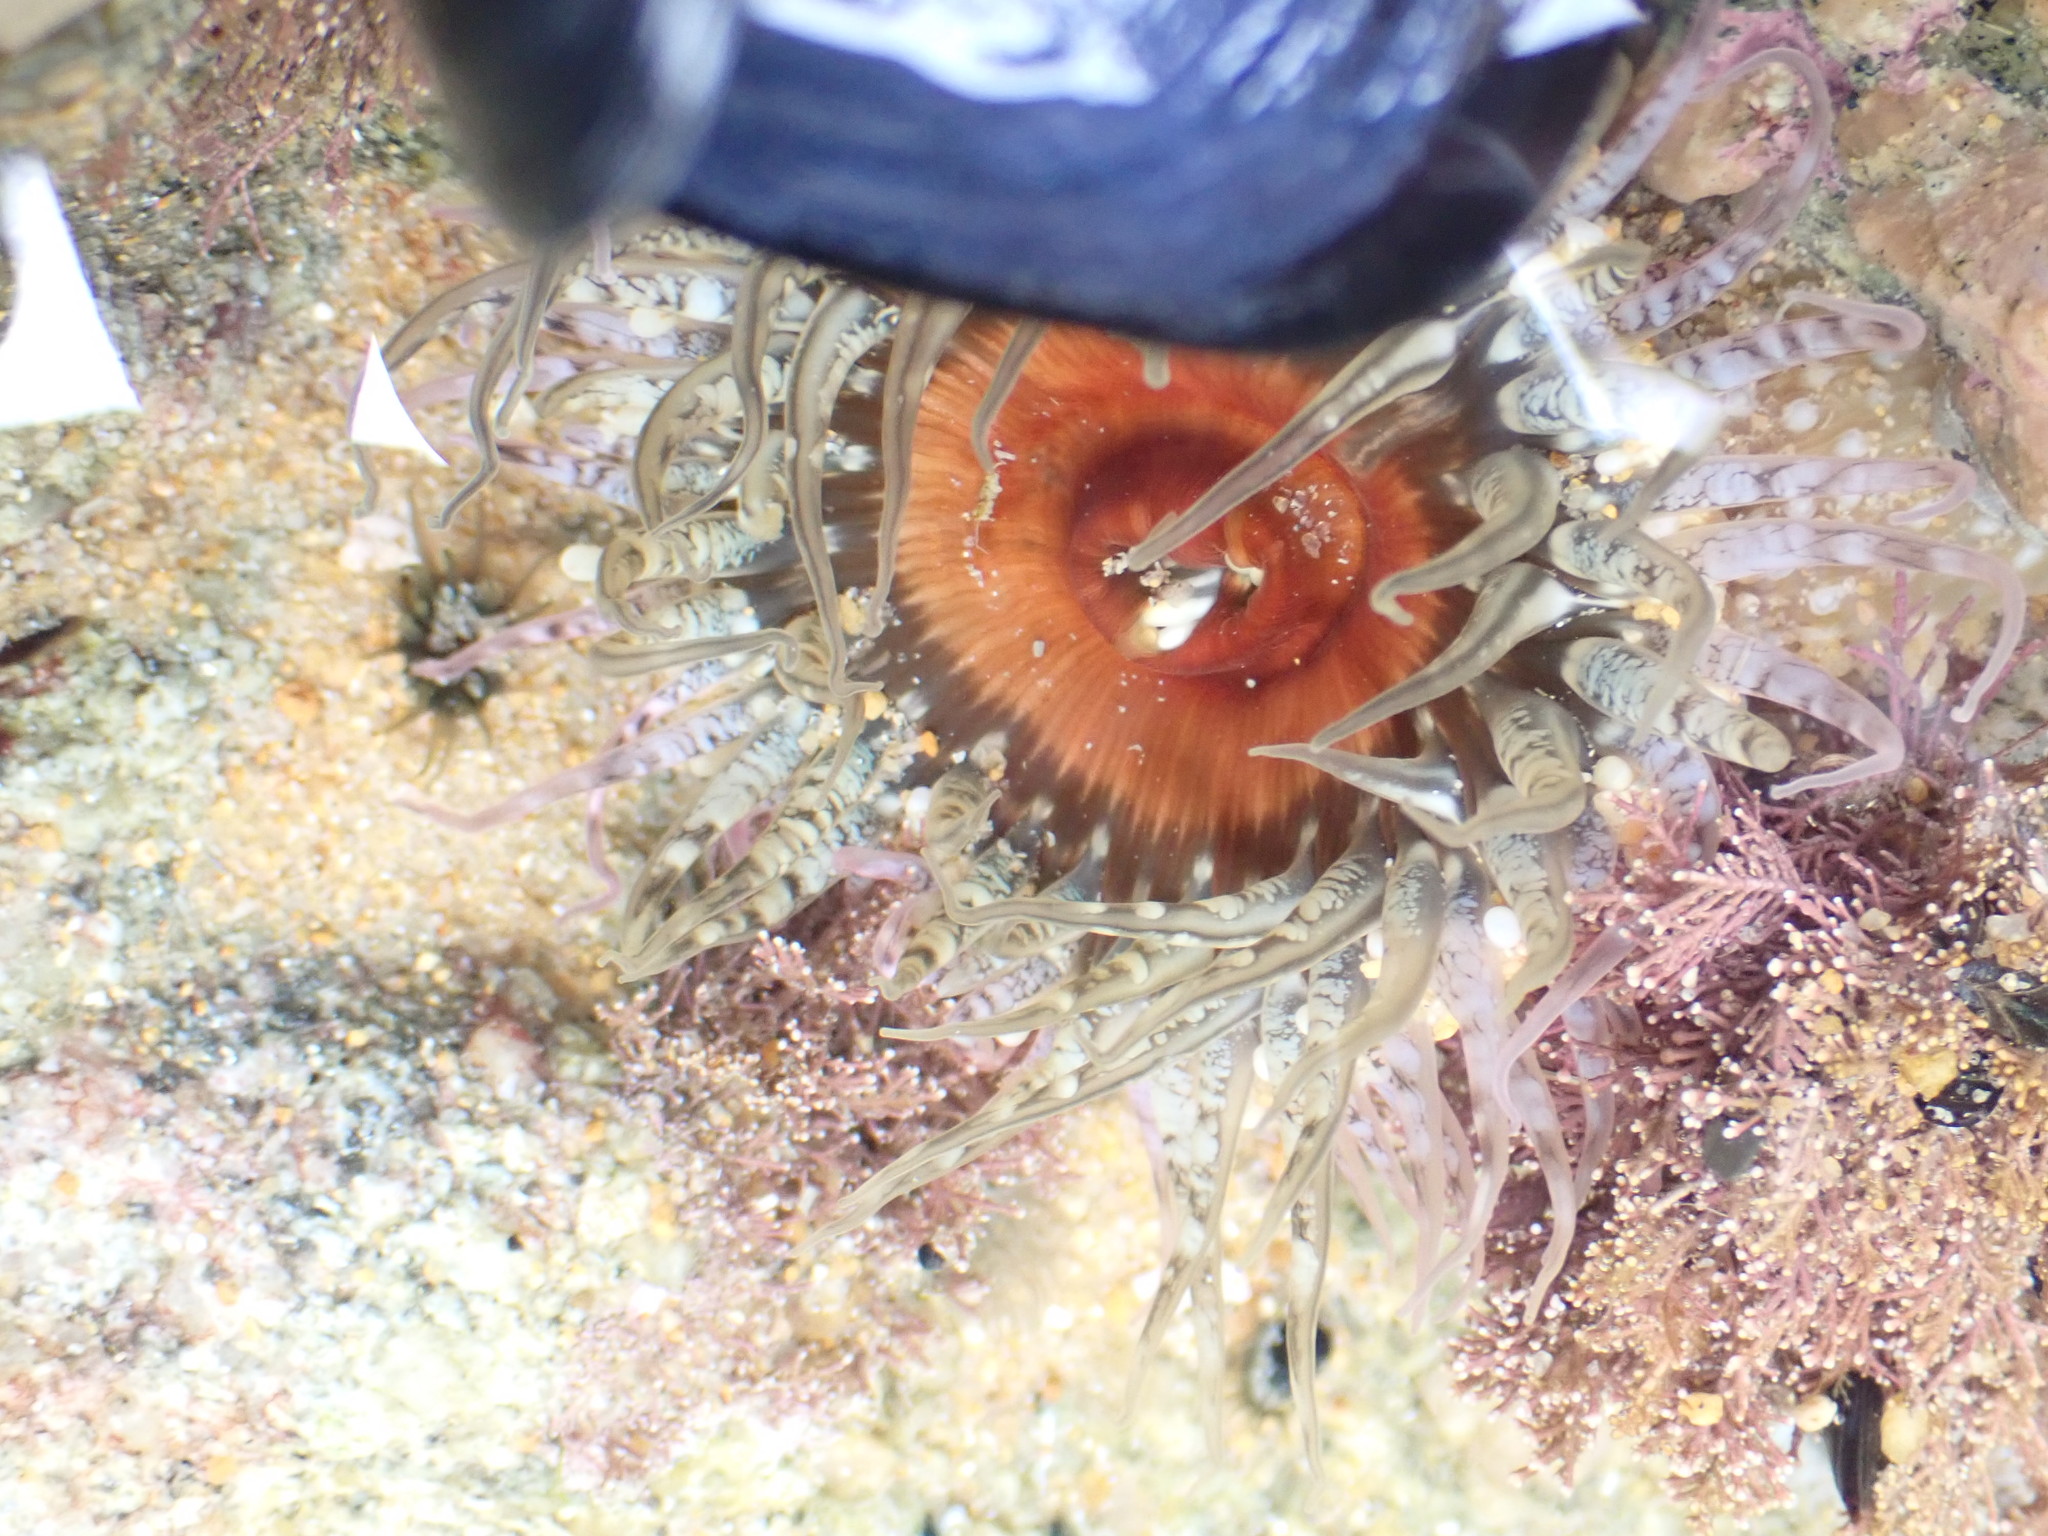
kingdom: Animalia
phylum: Cnidaria
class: Anthozoa
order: Actiniaria
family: Actiniidae
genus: Oulactis
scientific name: Oulactis muscosa
